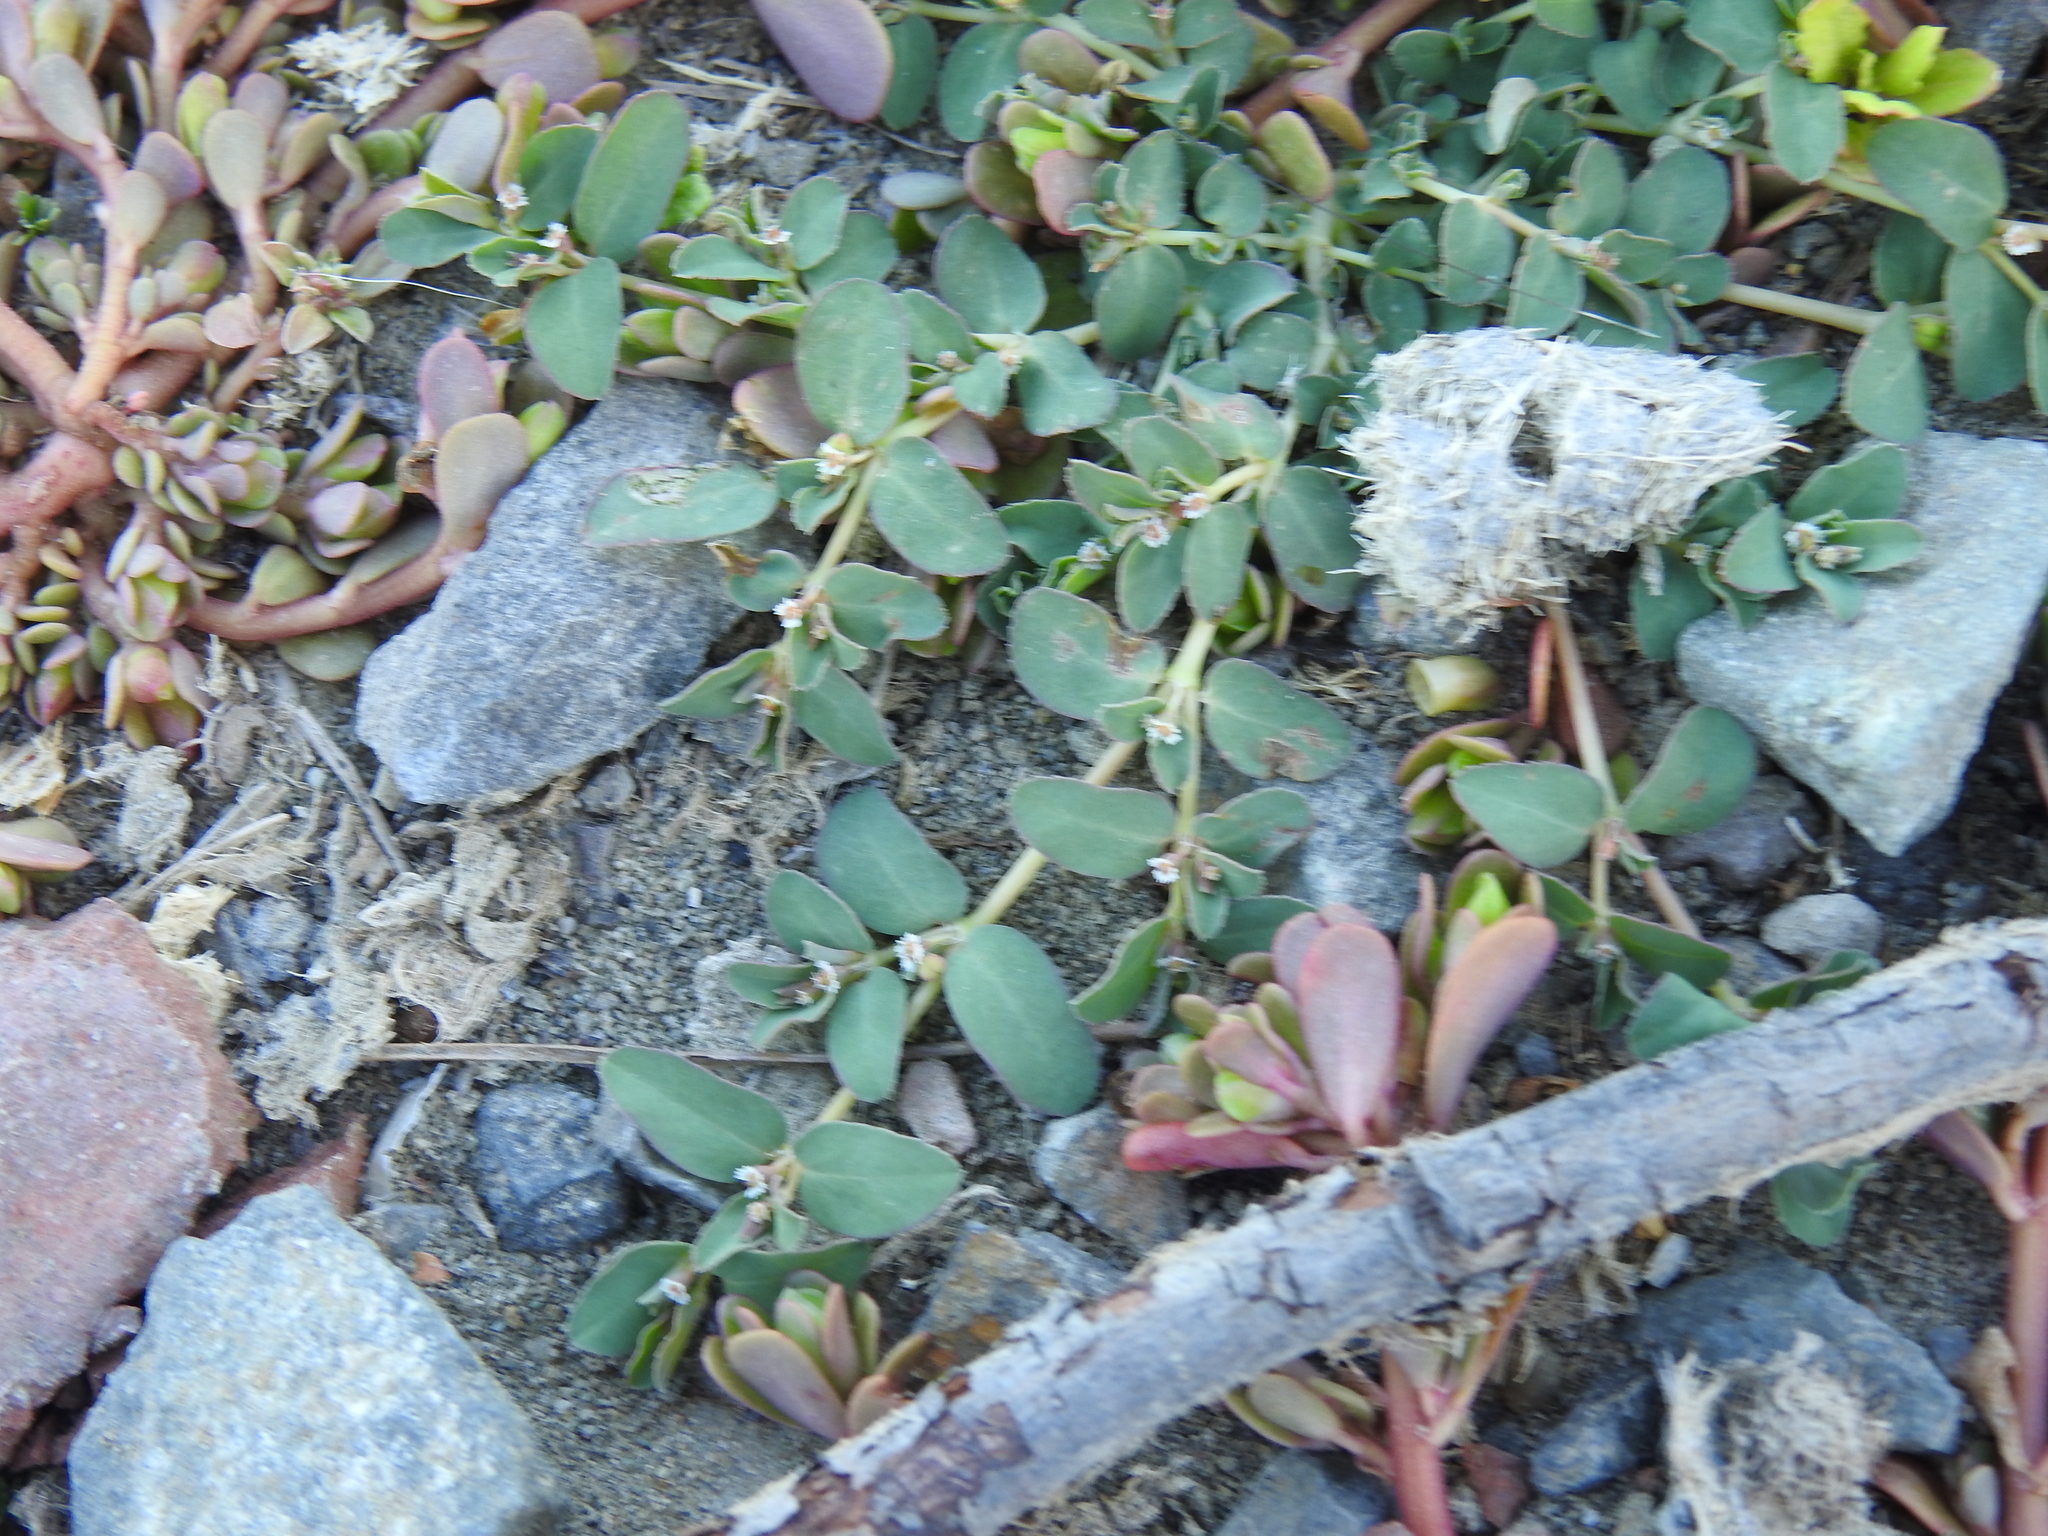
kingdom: Plantae
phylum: Tracheophyta
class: Magnoliopsida
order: Malpighiales
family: Euphorbiaceae
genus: Euphorbia
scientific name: Euphorbia serpillifolia
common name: Thyme-leaf spurge
